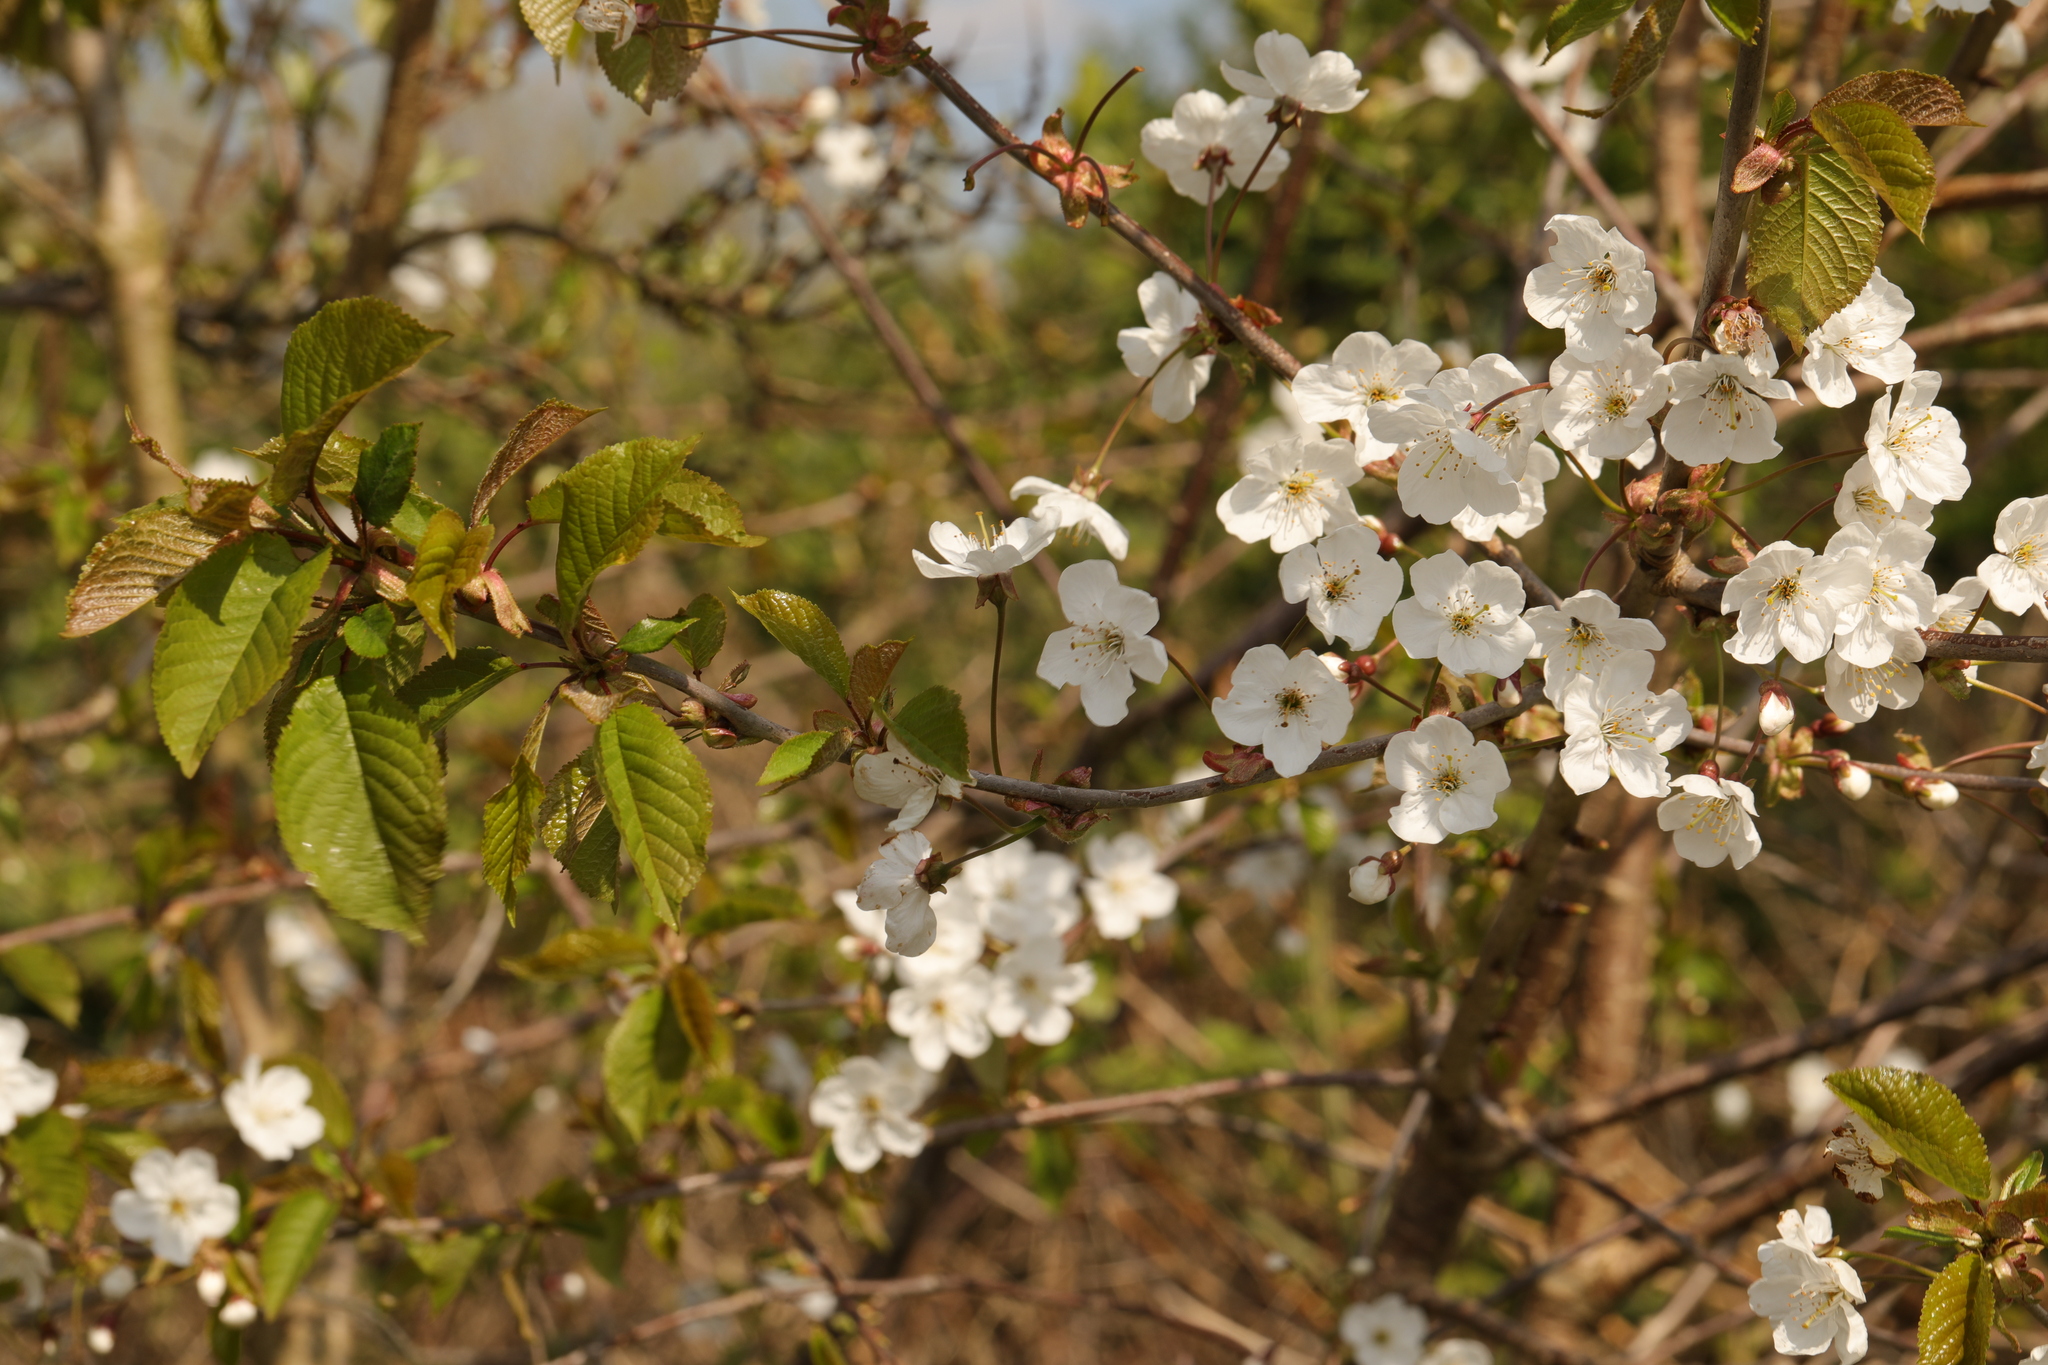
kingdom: Plantae
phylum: Tracheophyta
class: Magnoliopsida
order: Rosales
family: Rosaceae
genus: Prunus
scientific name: Prunus avium
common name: Sweet cherry
